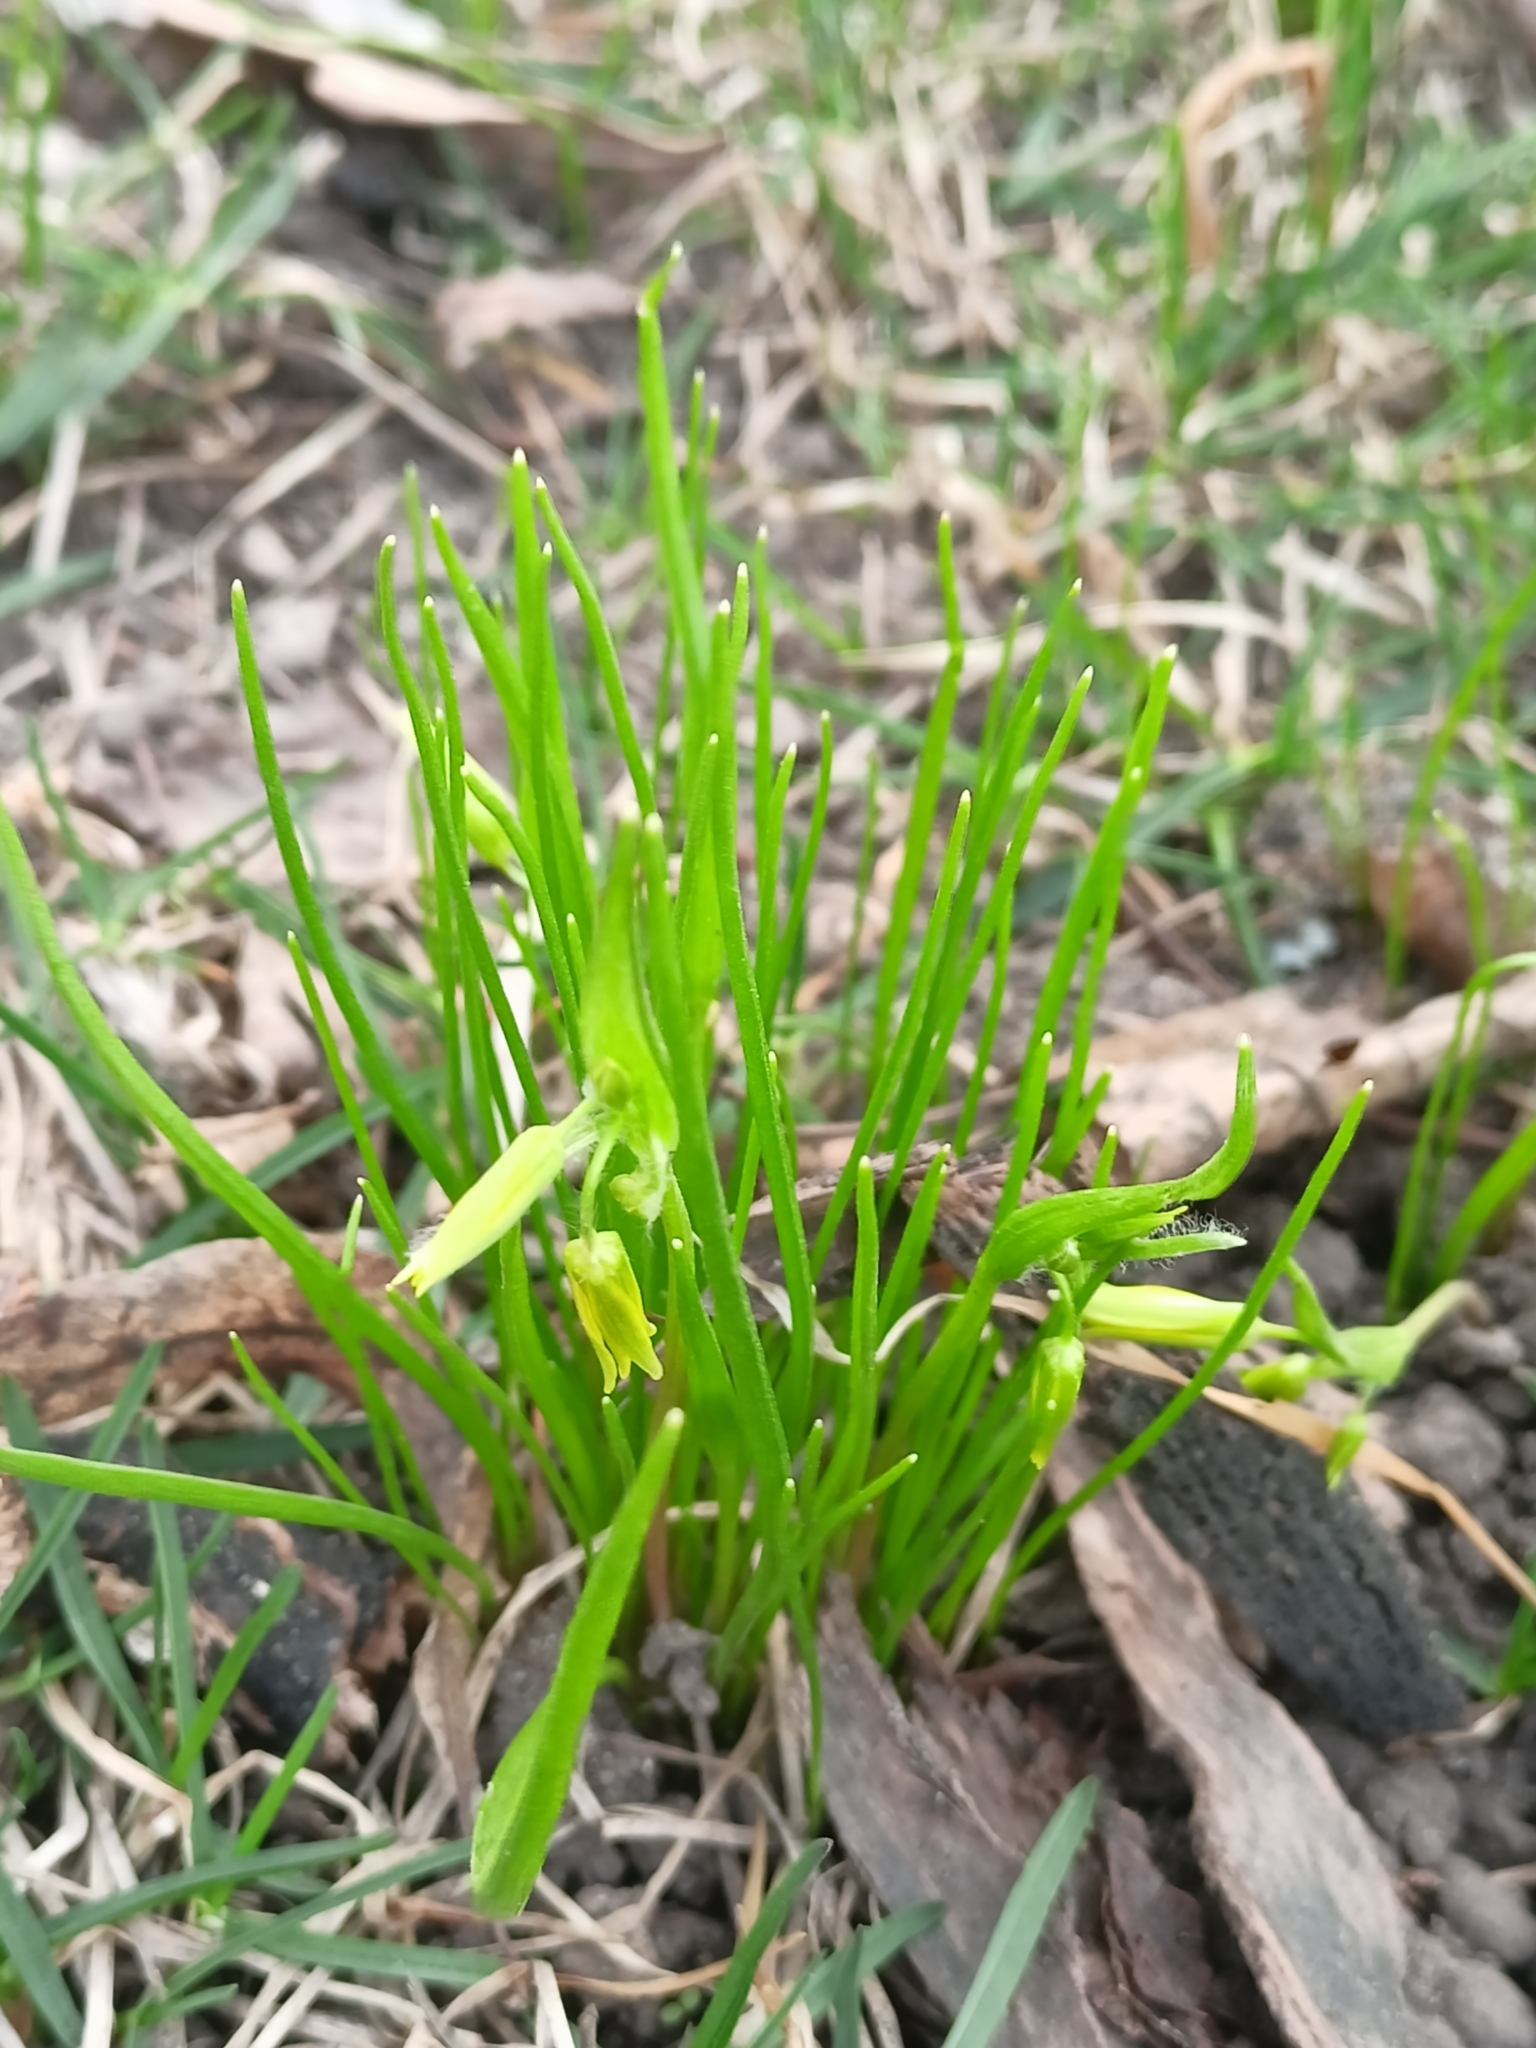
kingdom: Plantae
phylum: Tracheophyta
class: Liliopsida
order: Liliales
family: Liliaceae
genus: Gagea
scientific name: Gagea minima
